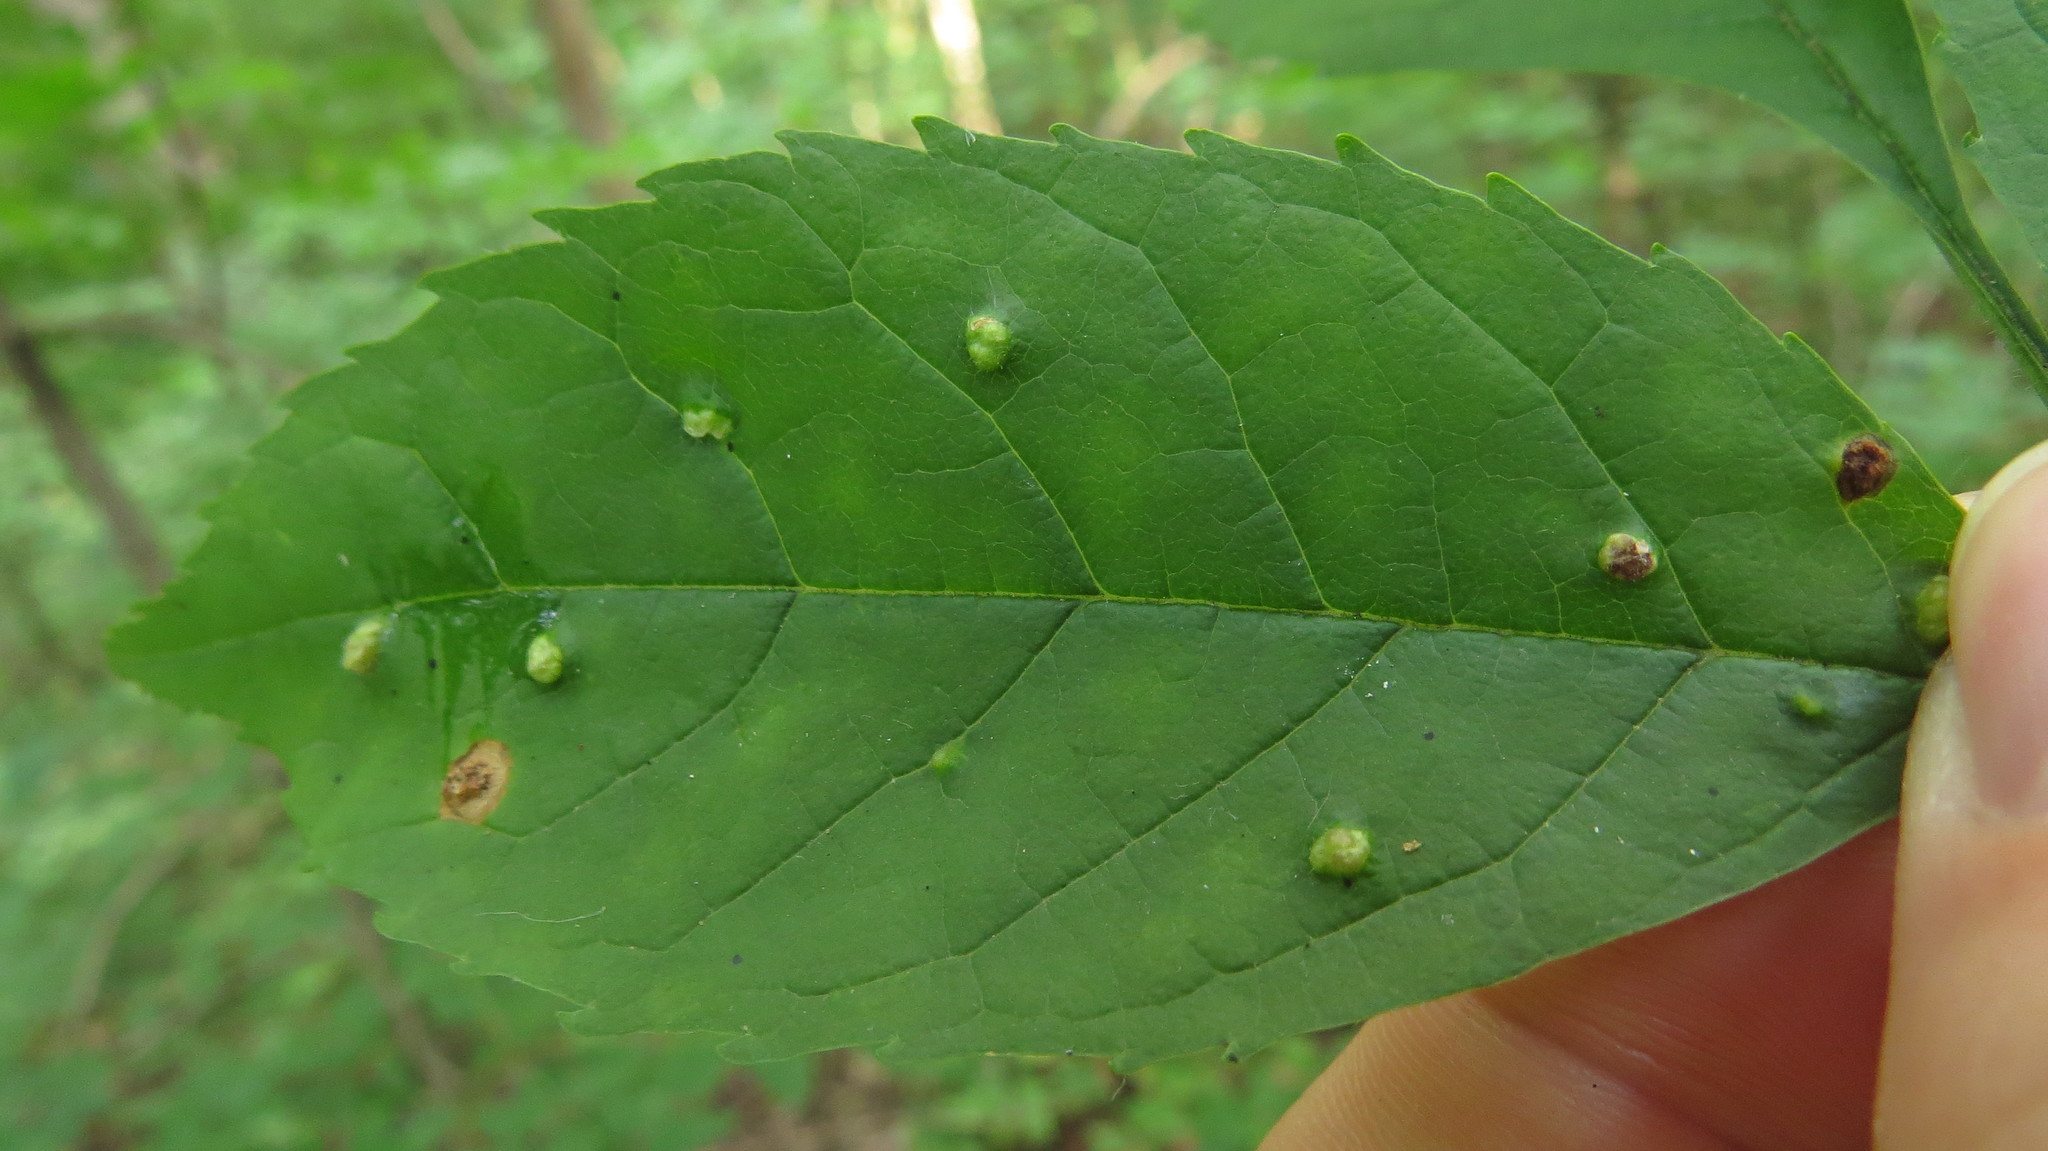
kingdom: Animalia
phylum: Arthropoda
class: Arachnida
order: Trombidiformes
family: Eriophyidae
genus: Aceria
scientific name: Aceria fraxinicola
